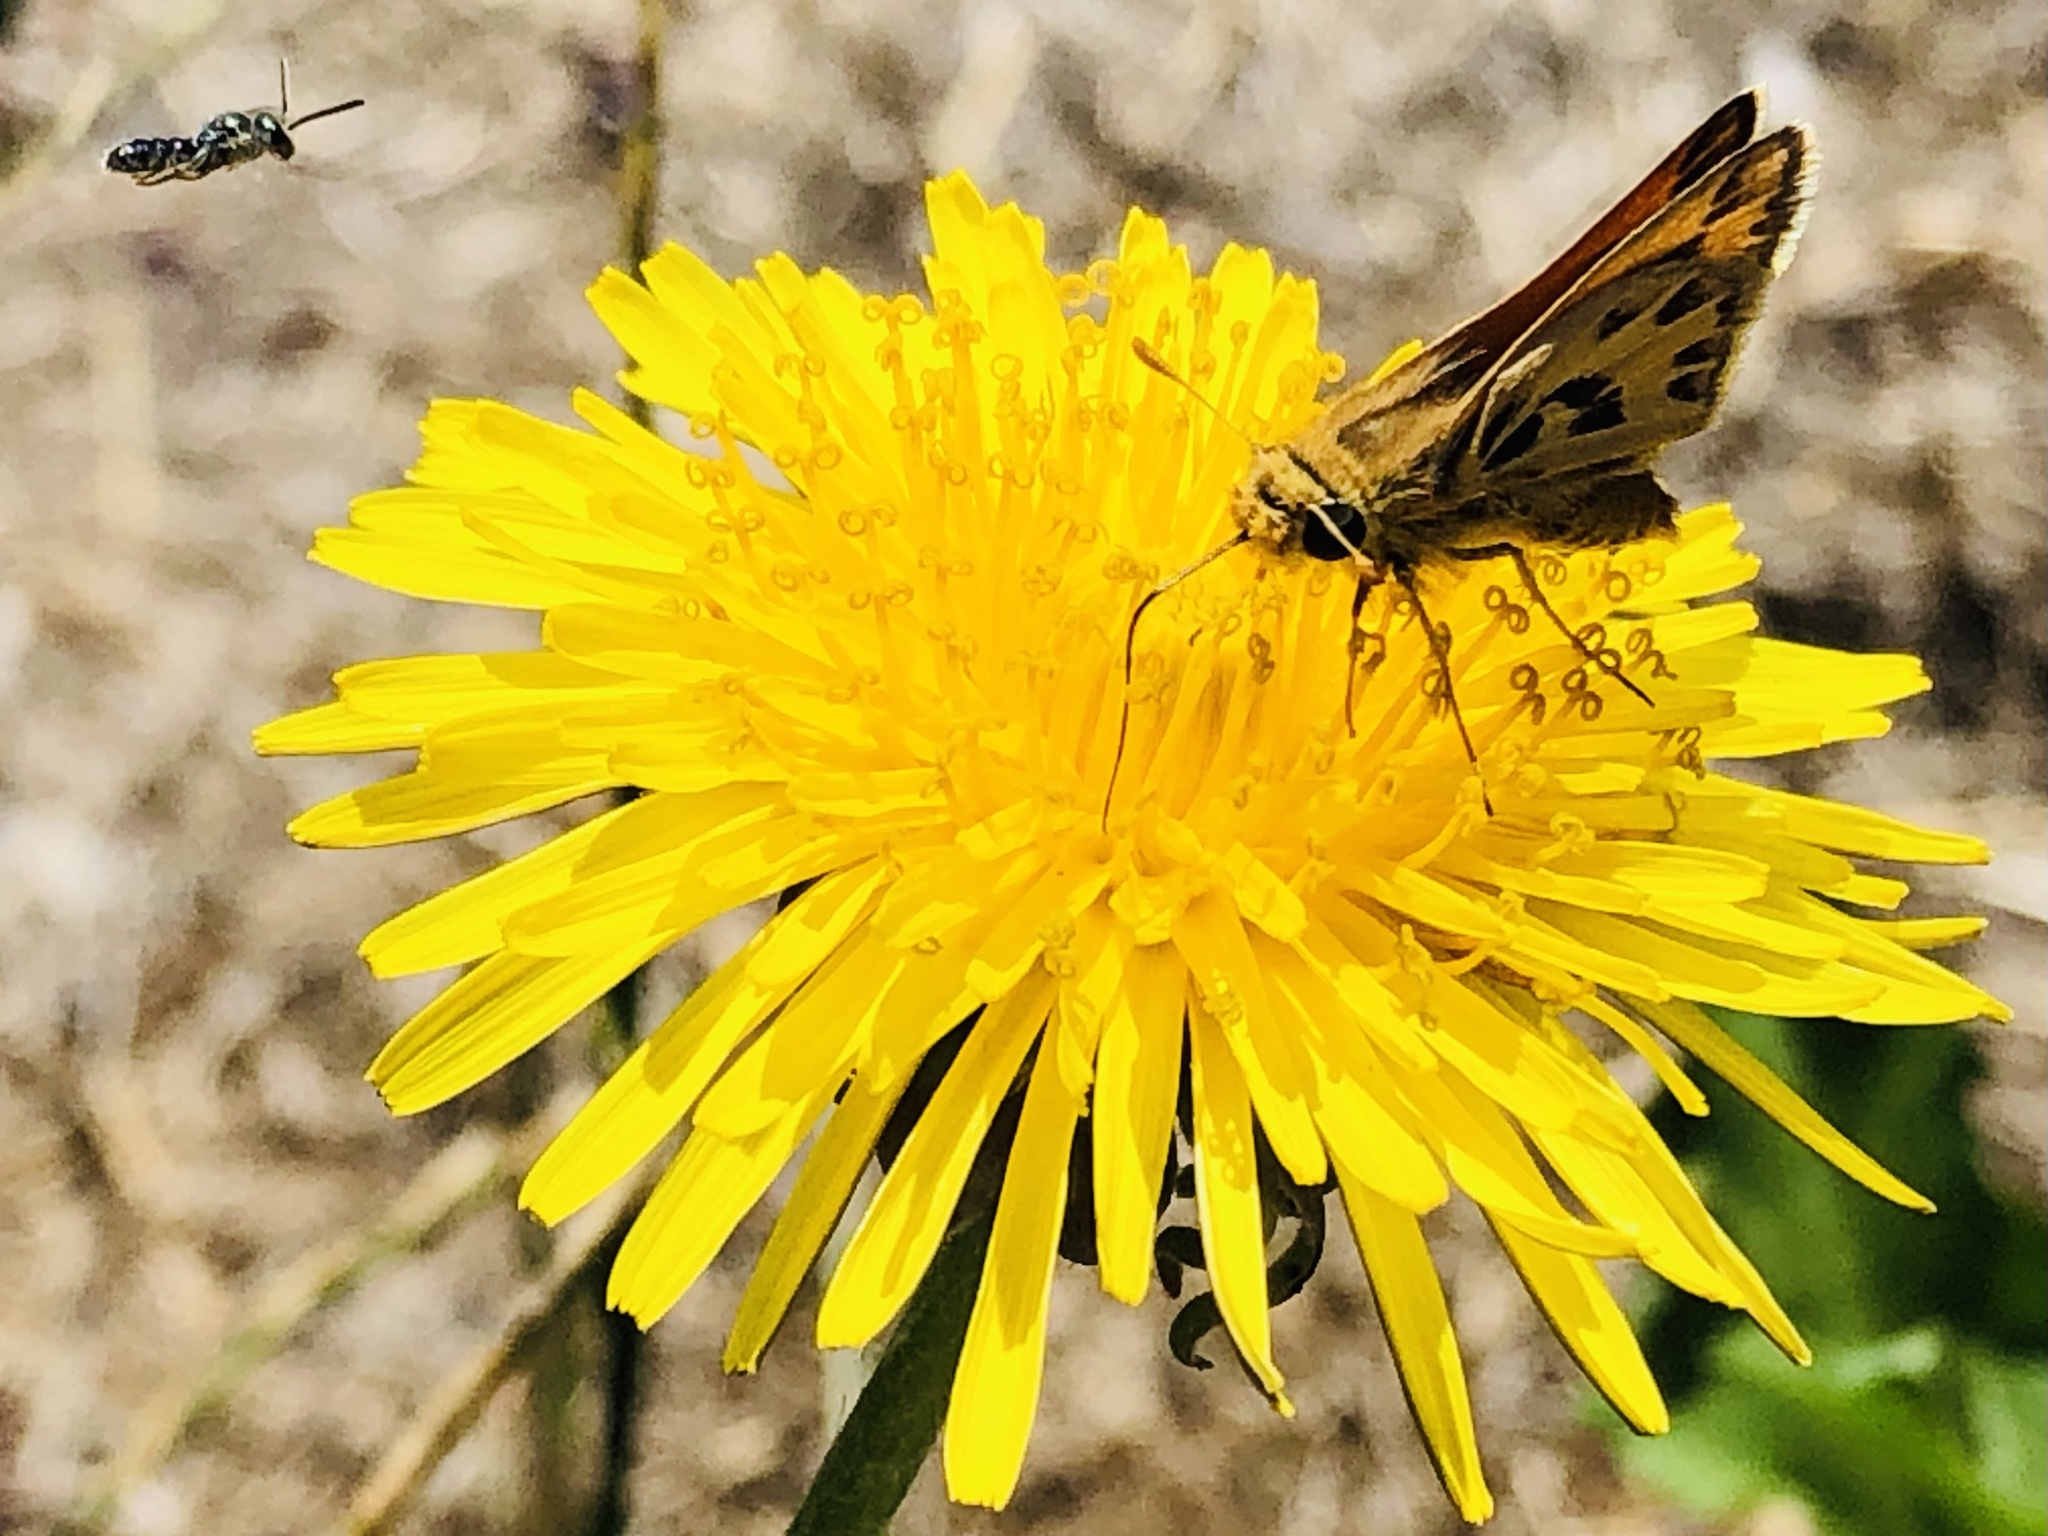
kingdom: Animalia
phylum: Arthropoda
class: Insecta
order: Lepidoptera
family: Hesperiidae
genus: Hylephila
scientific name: Hylephila fasciolata
